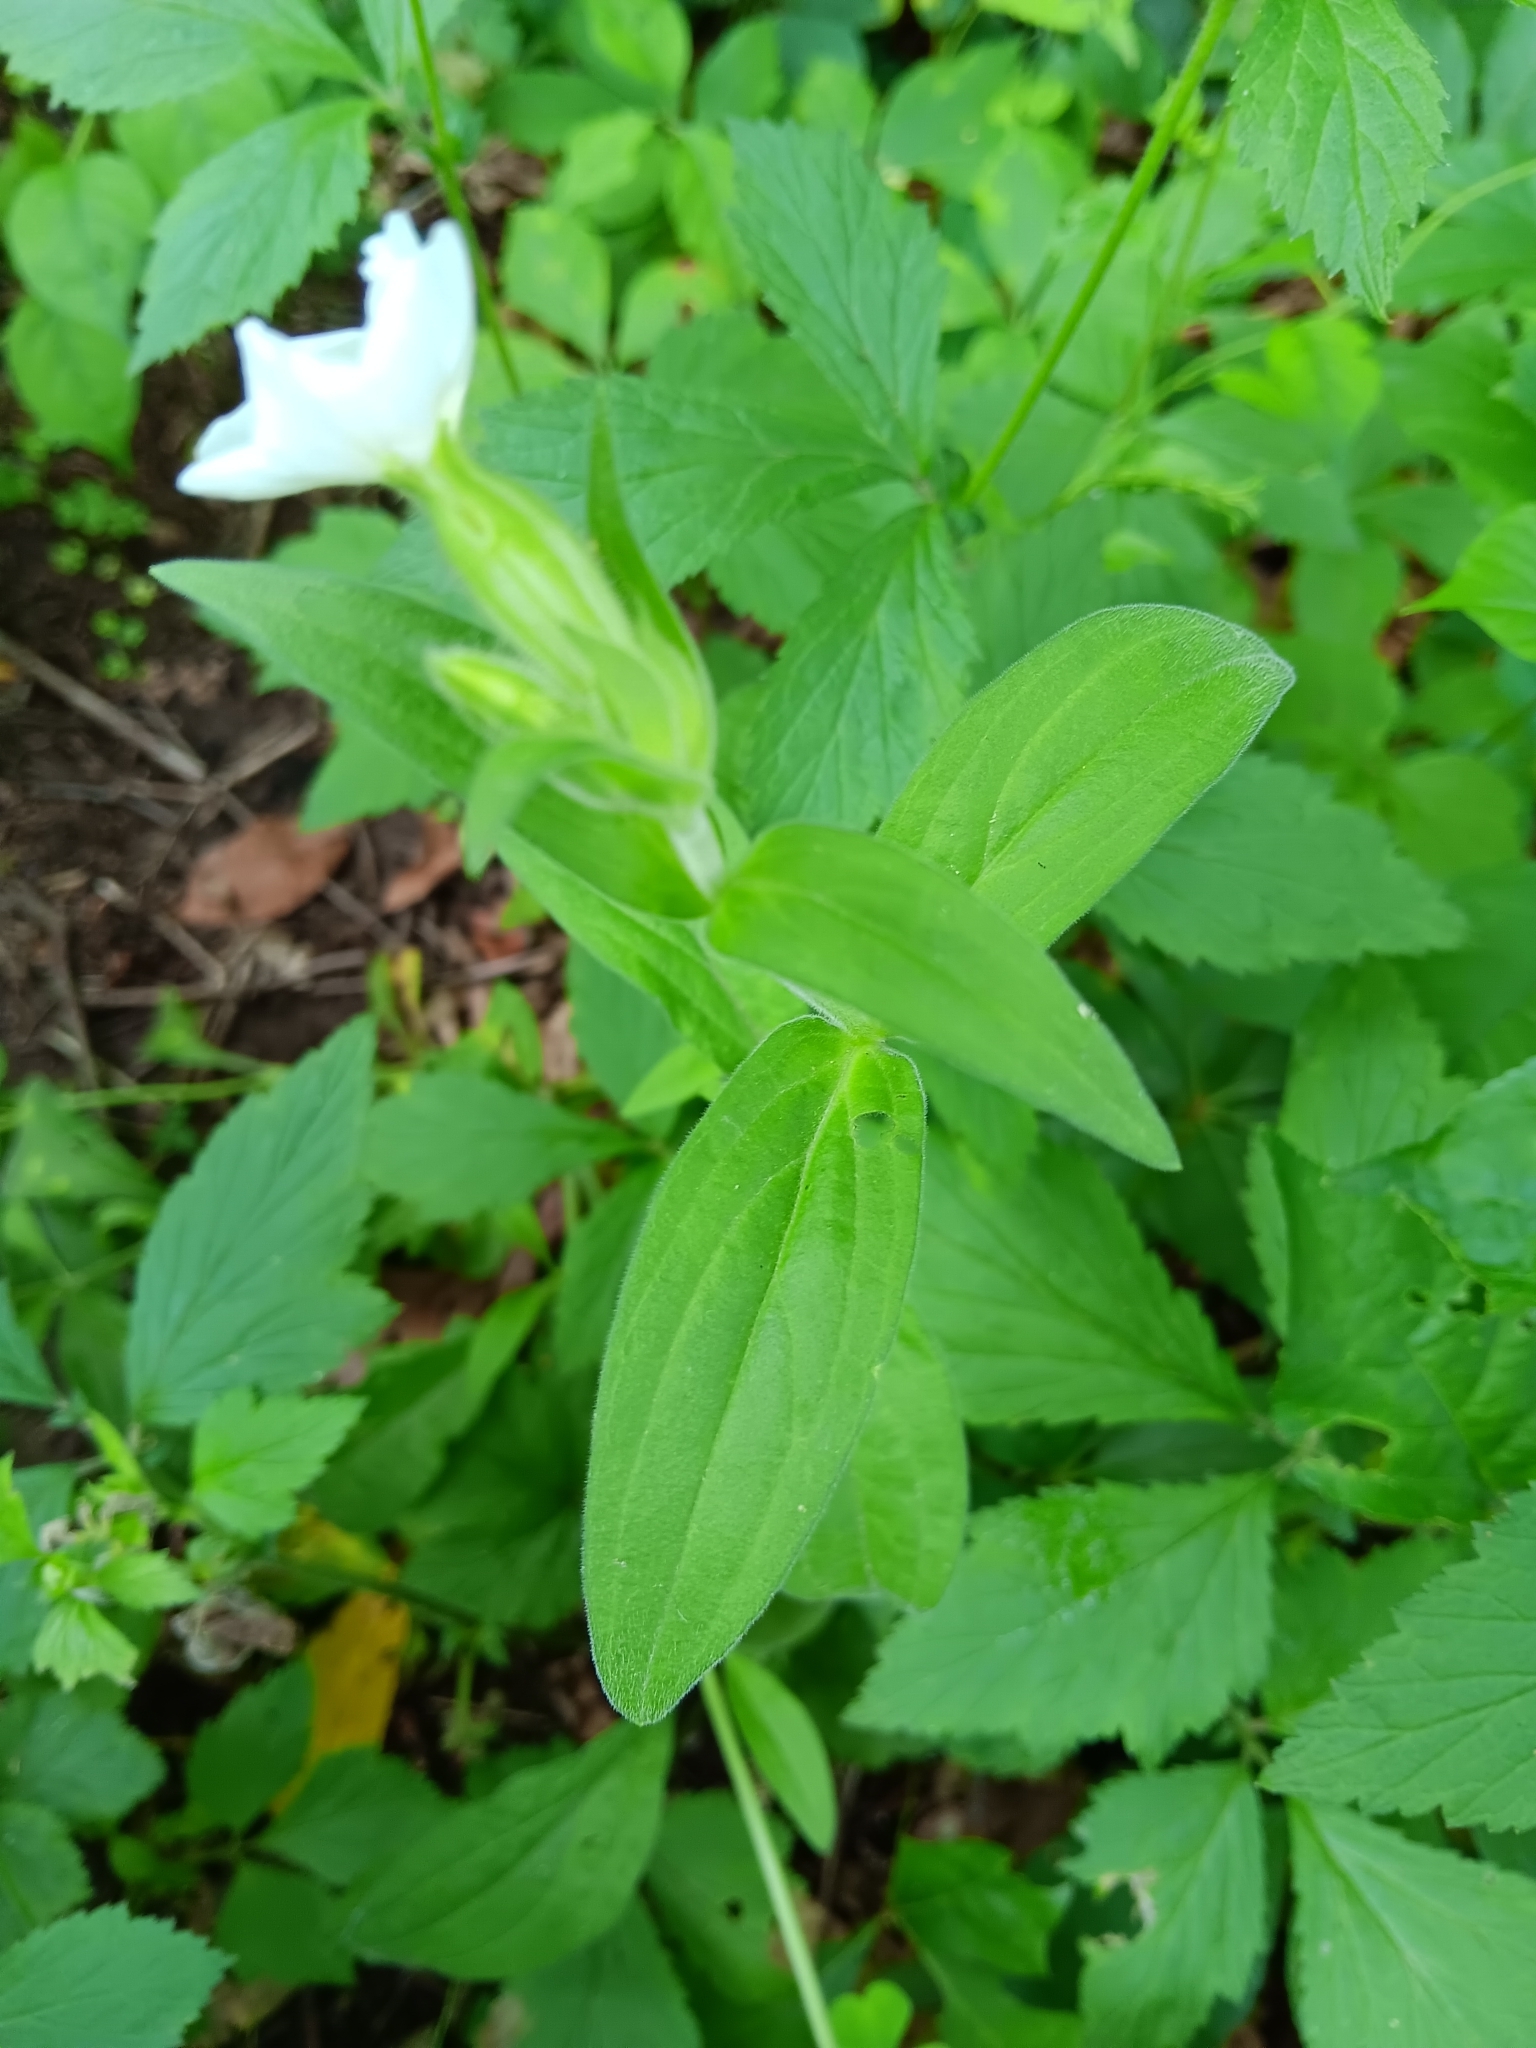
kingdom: Plantae
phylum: Tracheophyta
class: Magnoliopsida
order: Caryophyllales
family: Caryophyllaceae
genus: Silene
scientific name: Silene latifolia
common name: White campion
